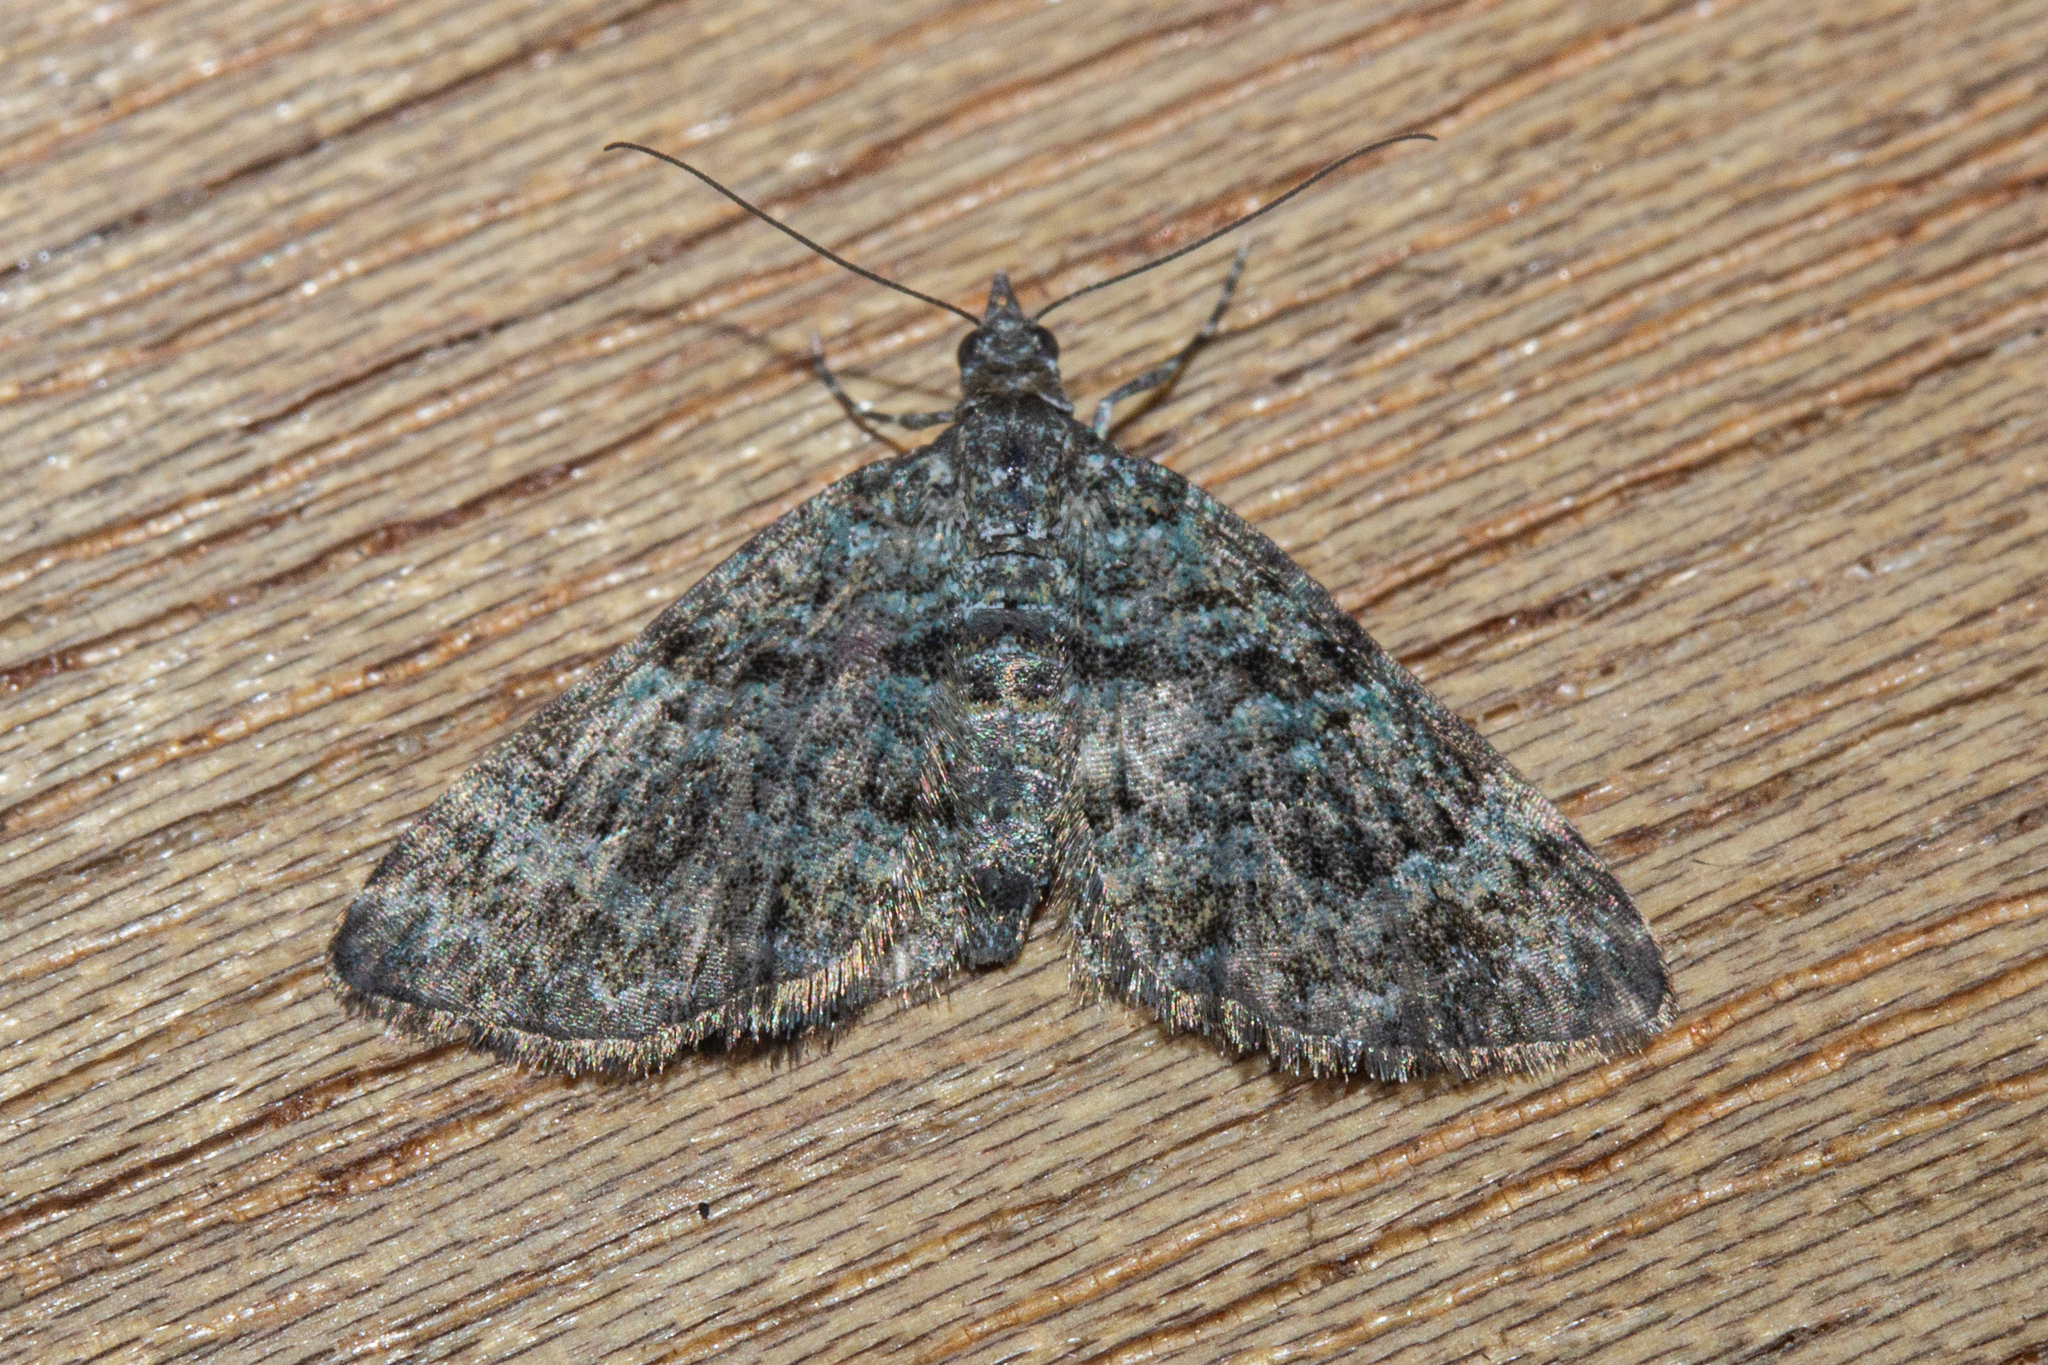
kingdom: Animalia
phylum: Arthropoda
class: Insecta
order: Lepidoptera
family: Geometridae
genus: Chloroclystis
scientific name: Chloroclystis nereis
